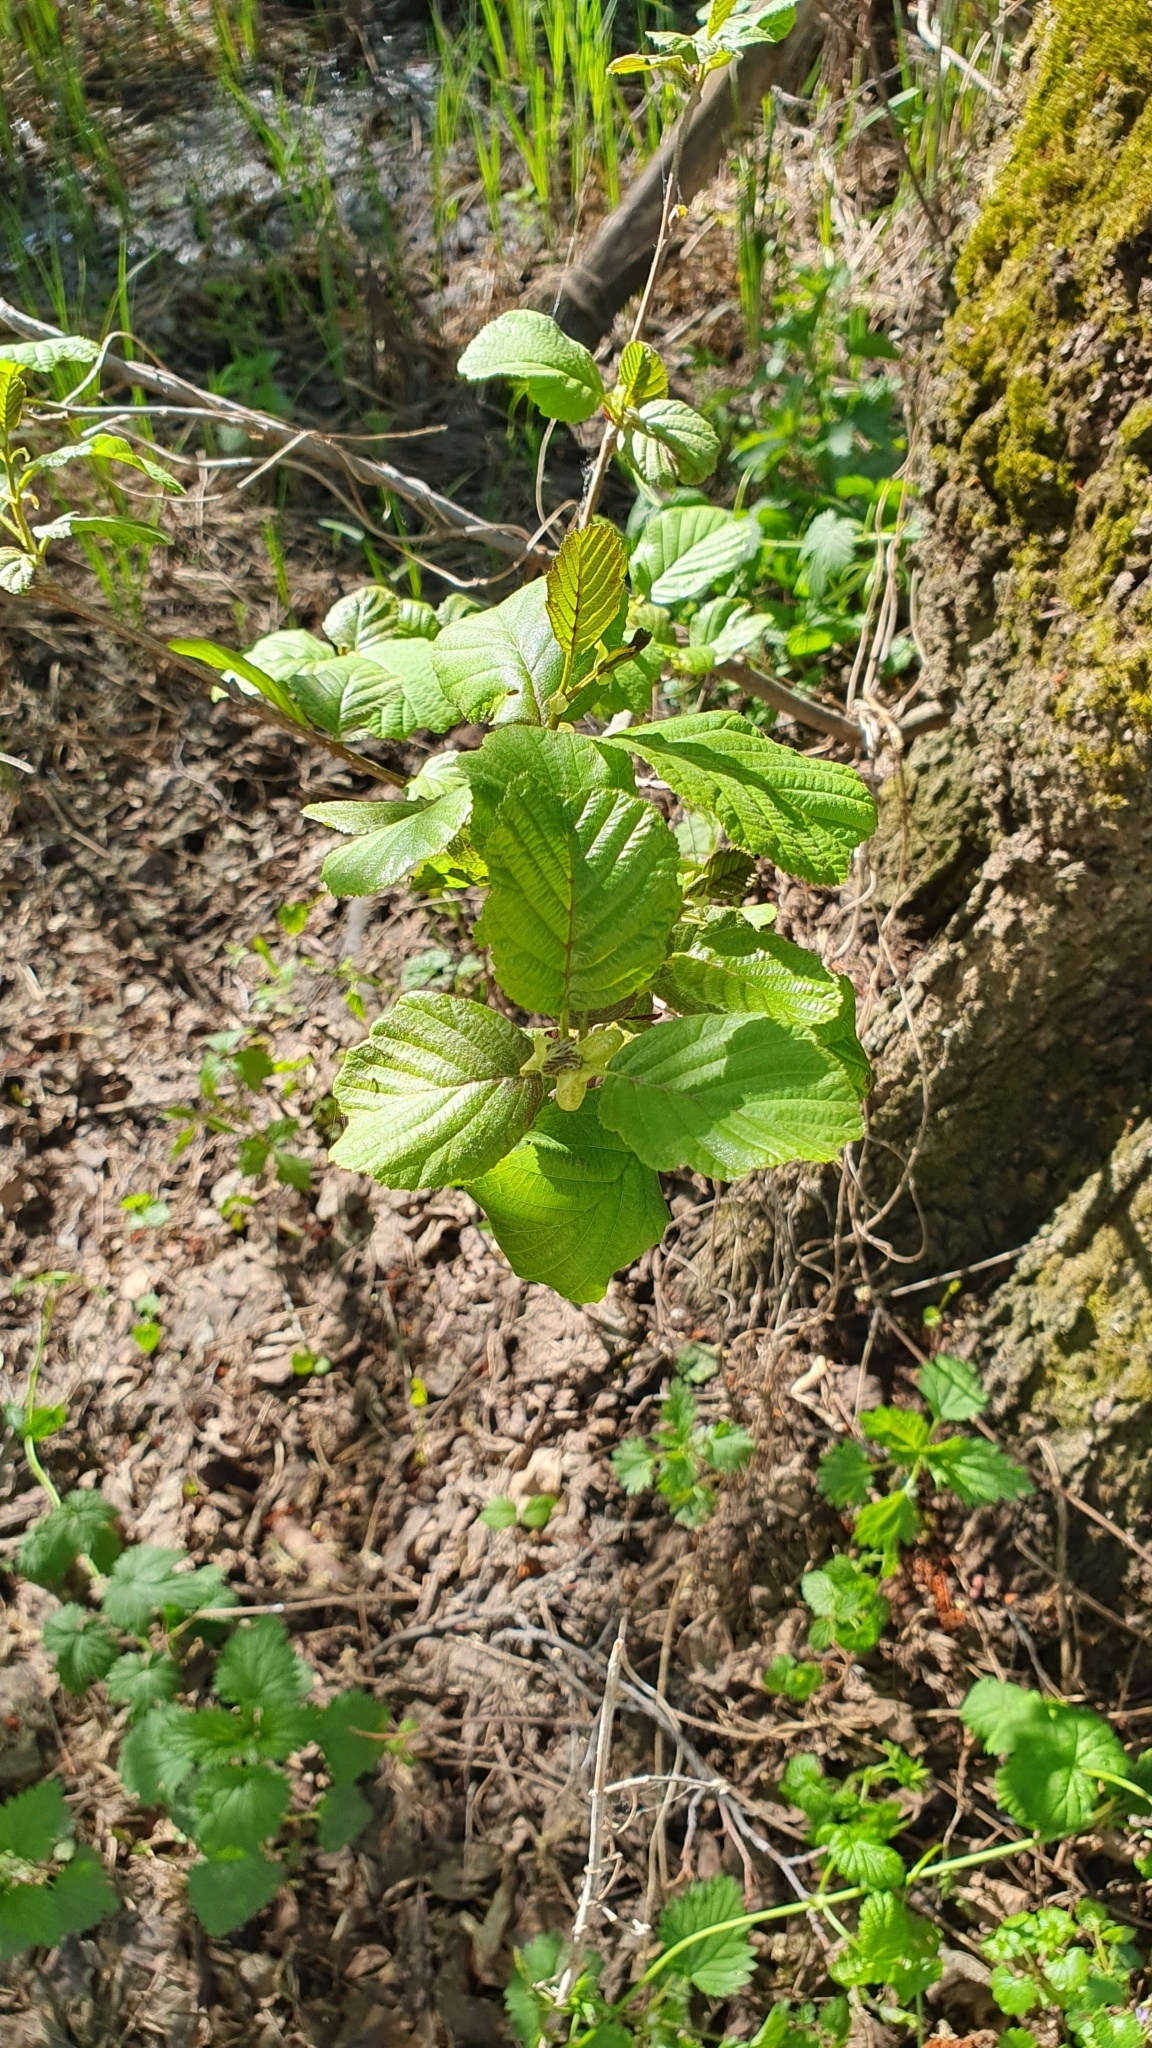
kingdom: Plantae
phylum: Tracheophyta
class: Magnoliopsida
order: Fagales
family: Betulaceae
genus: Alnus
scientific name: Alnus glutinosa
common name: Black alder
